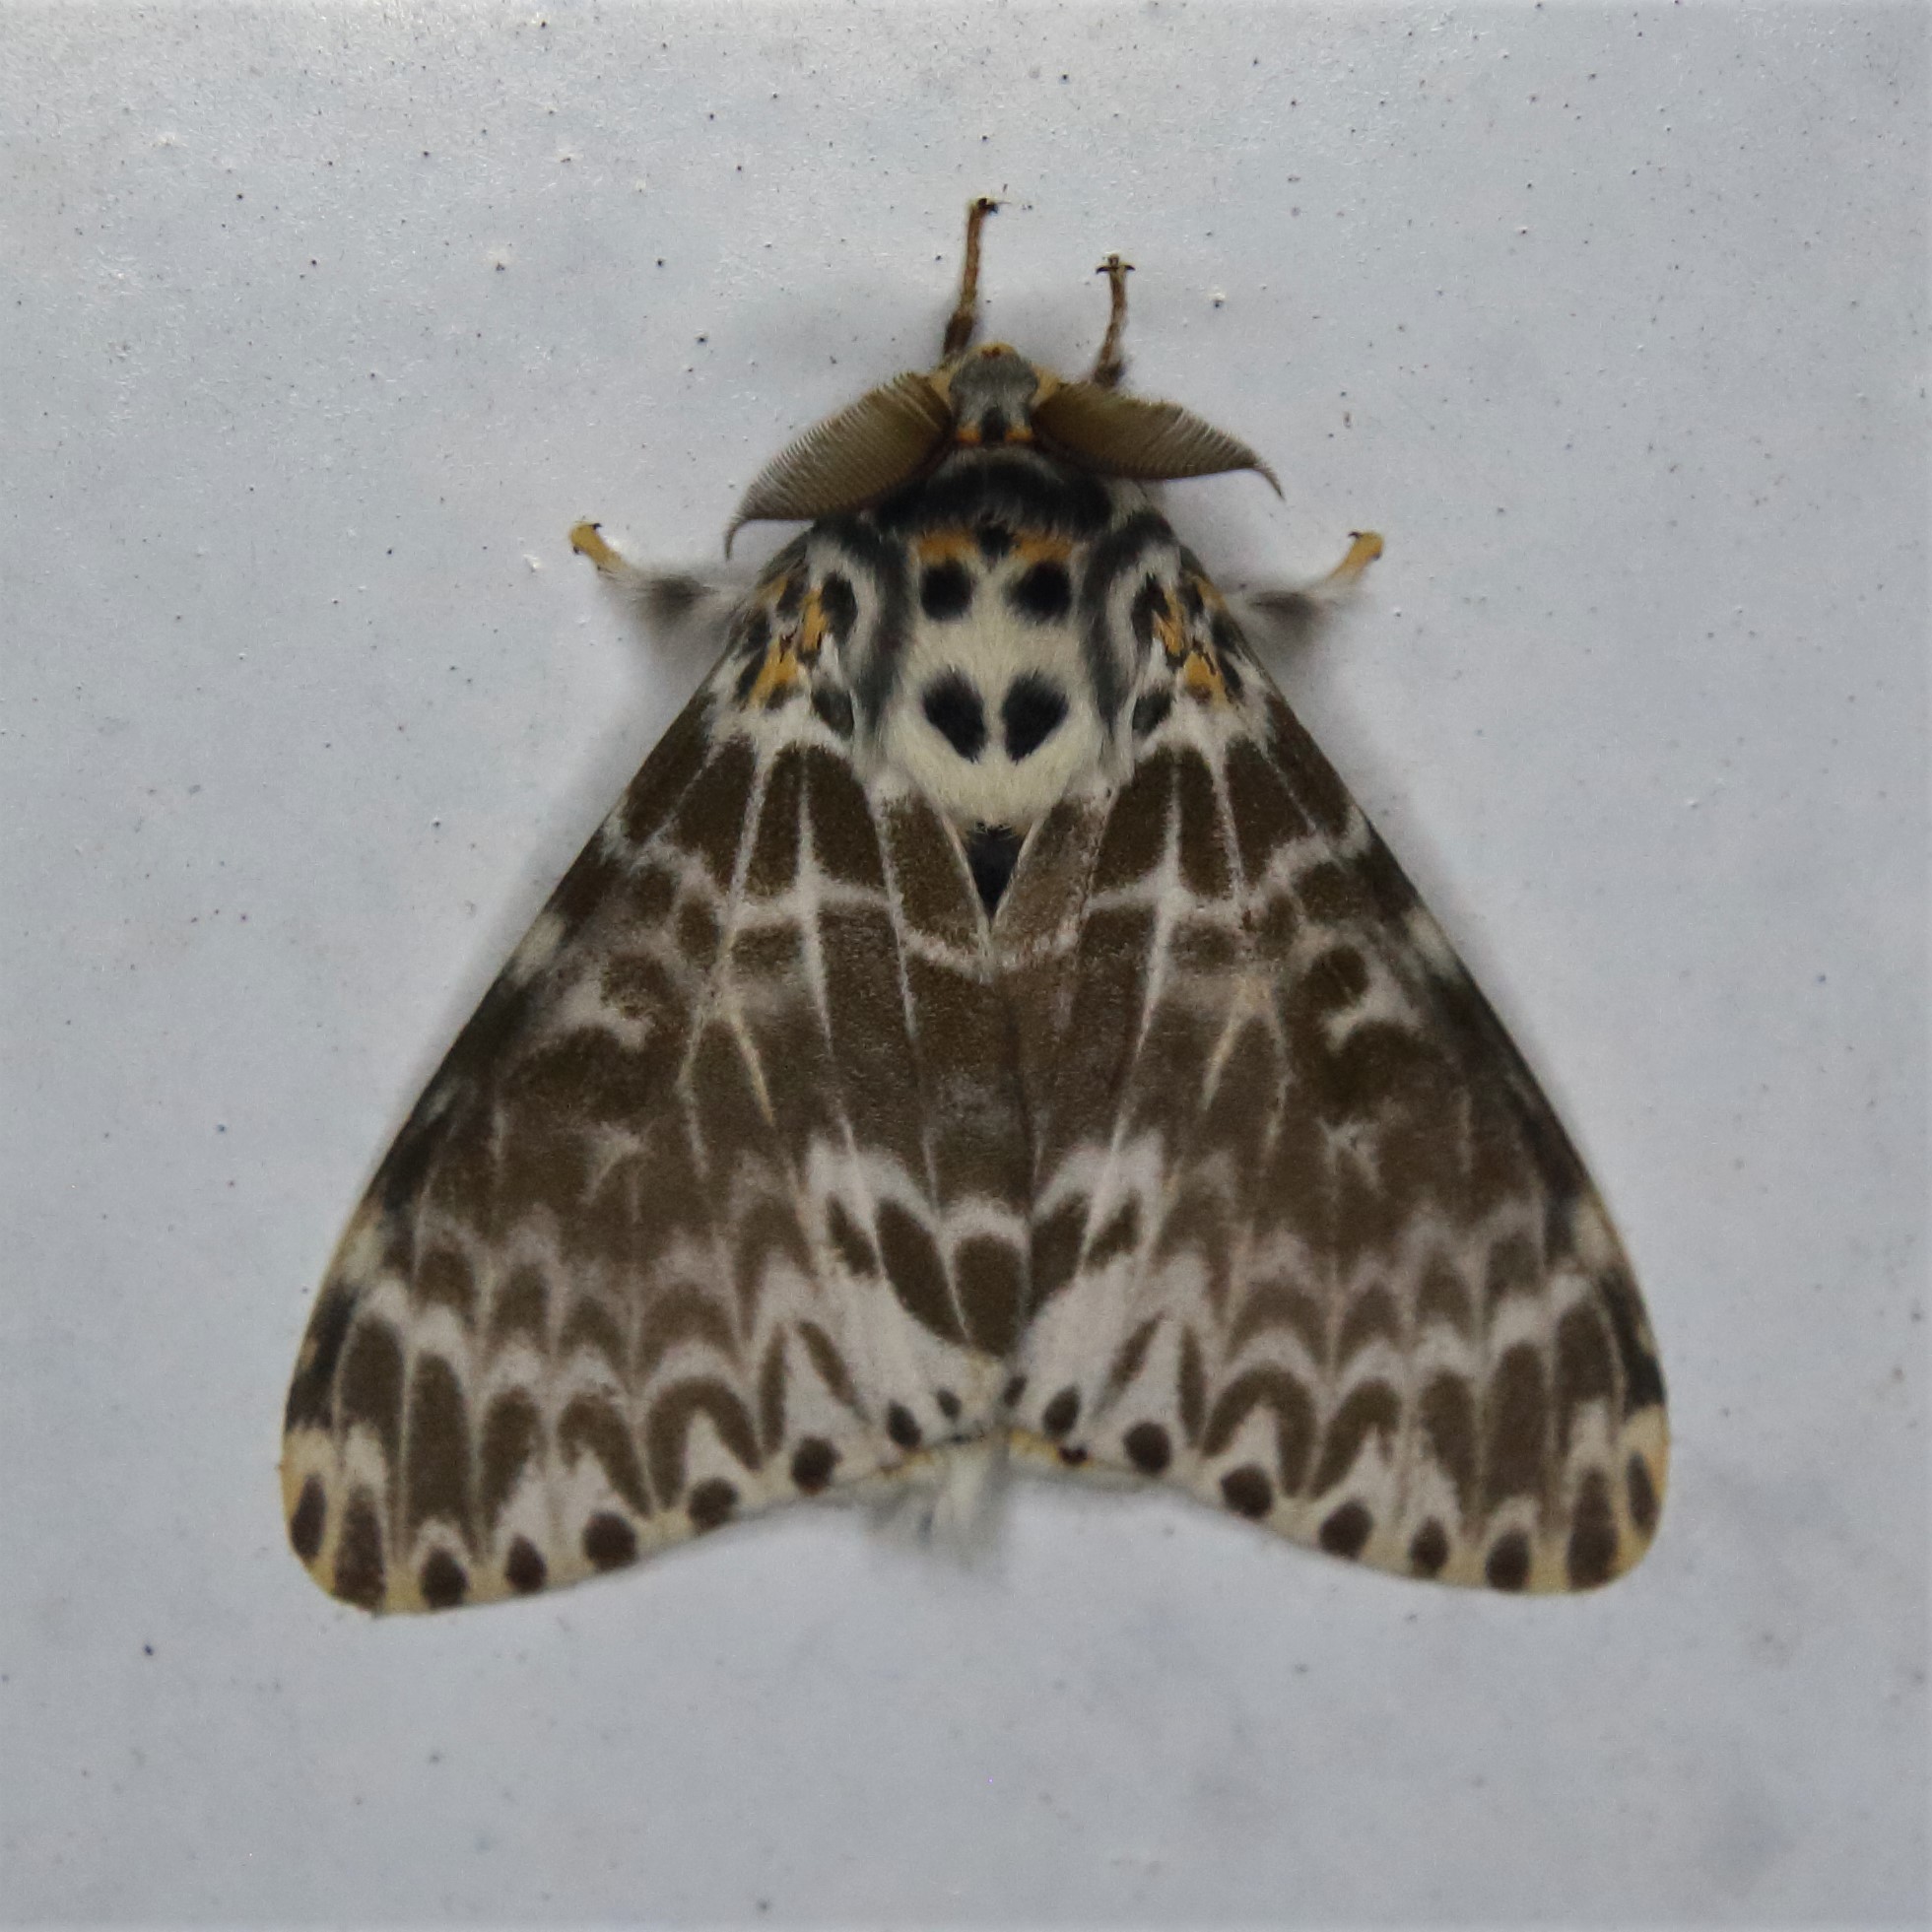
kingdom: Animalia
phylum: Arthropoda
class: Insecta
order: Lepidoptera
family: Erebidae
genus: Lymantria
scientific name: Lymantria mathura
